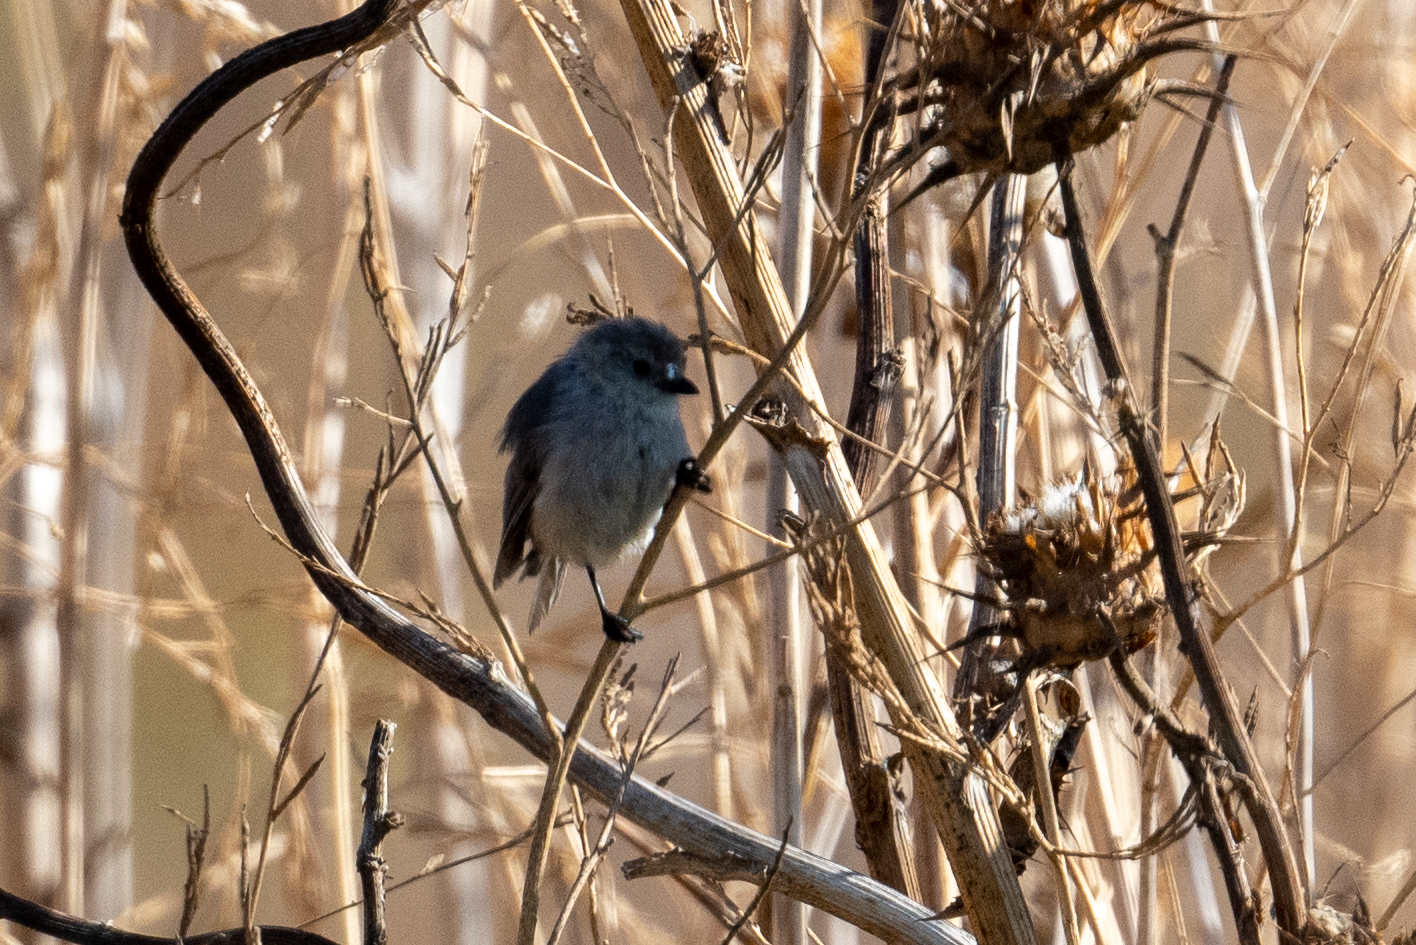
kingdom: Animalia
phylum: Chordata
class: Aves
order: Passeriformes
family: Aegithalidae
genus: Psaltriparus
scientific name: Psaltriparus minimus
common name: American bushtit
